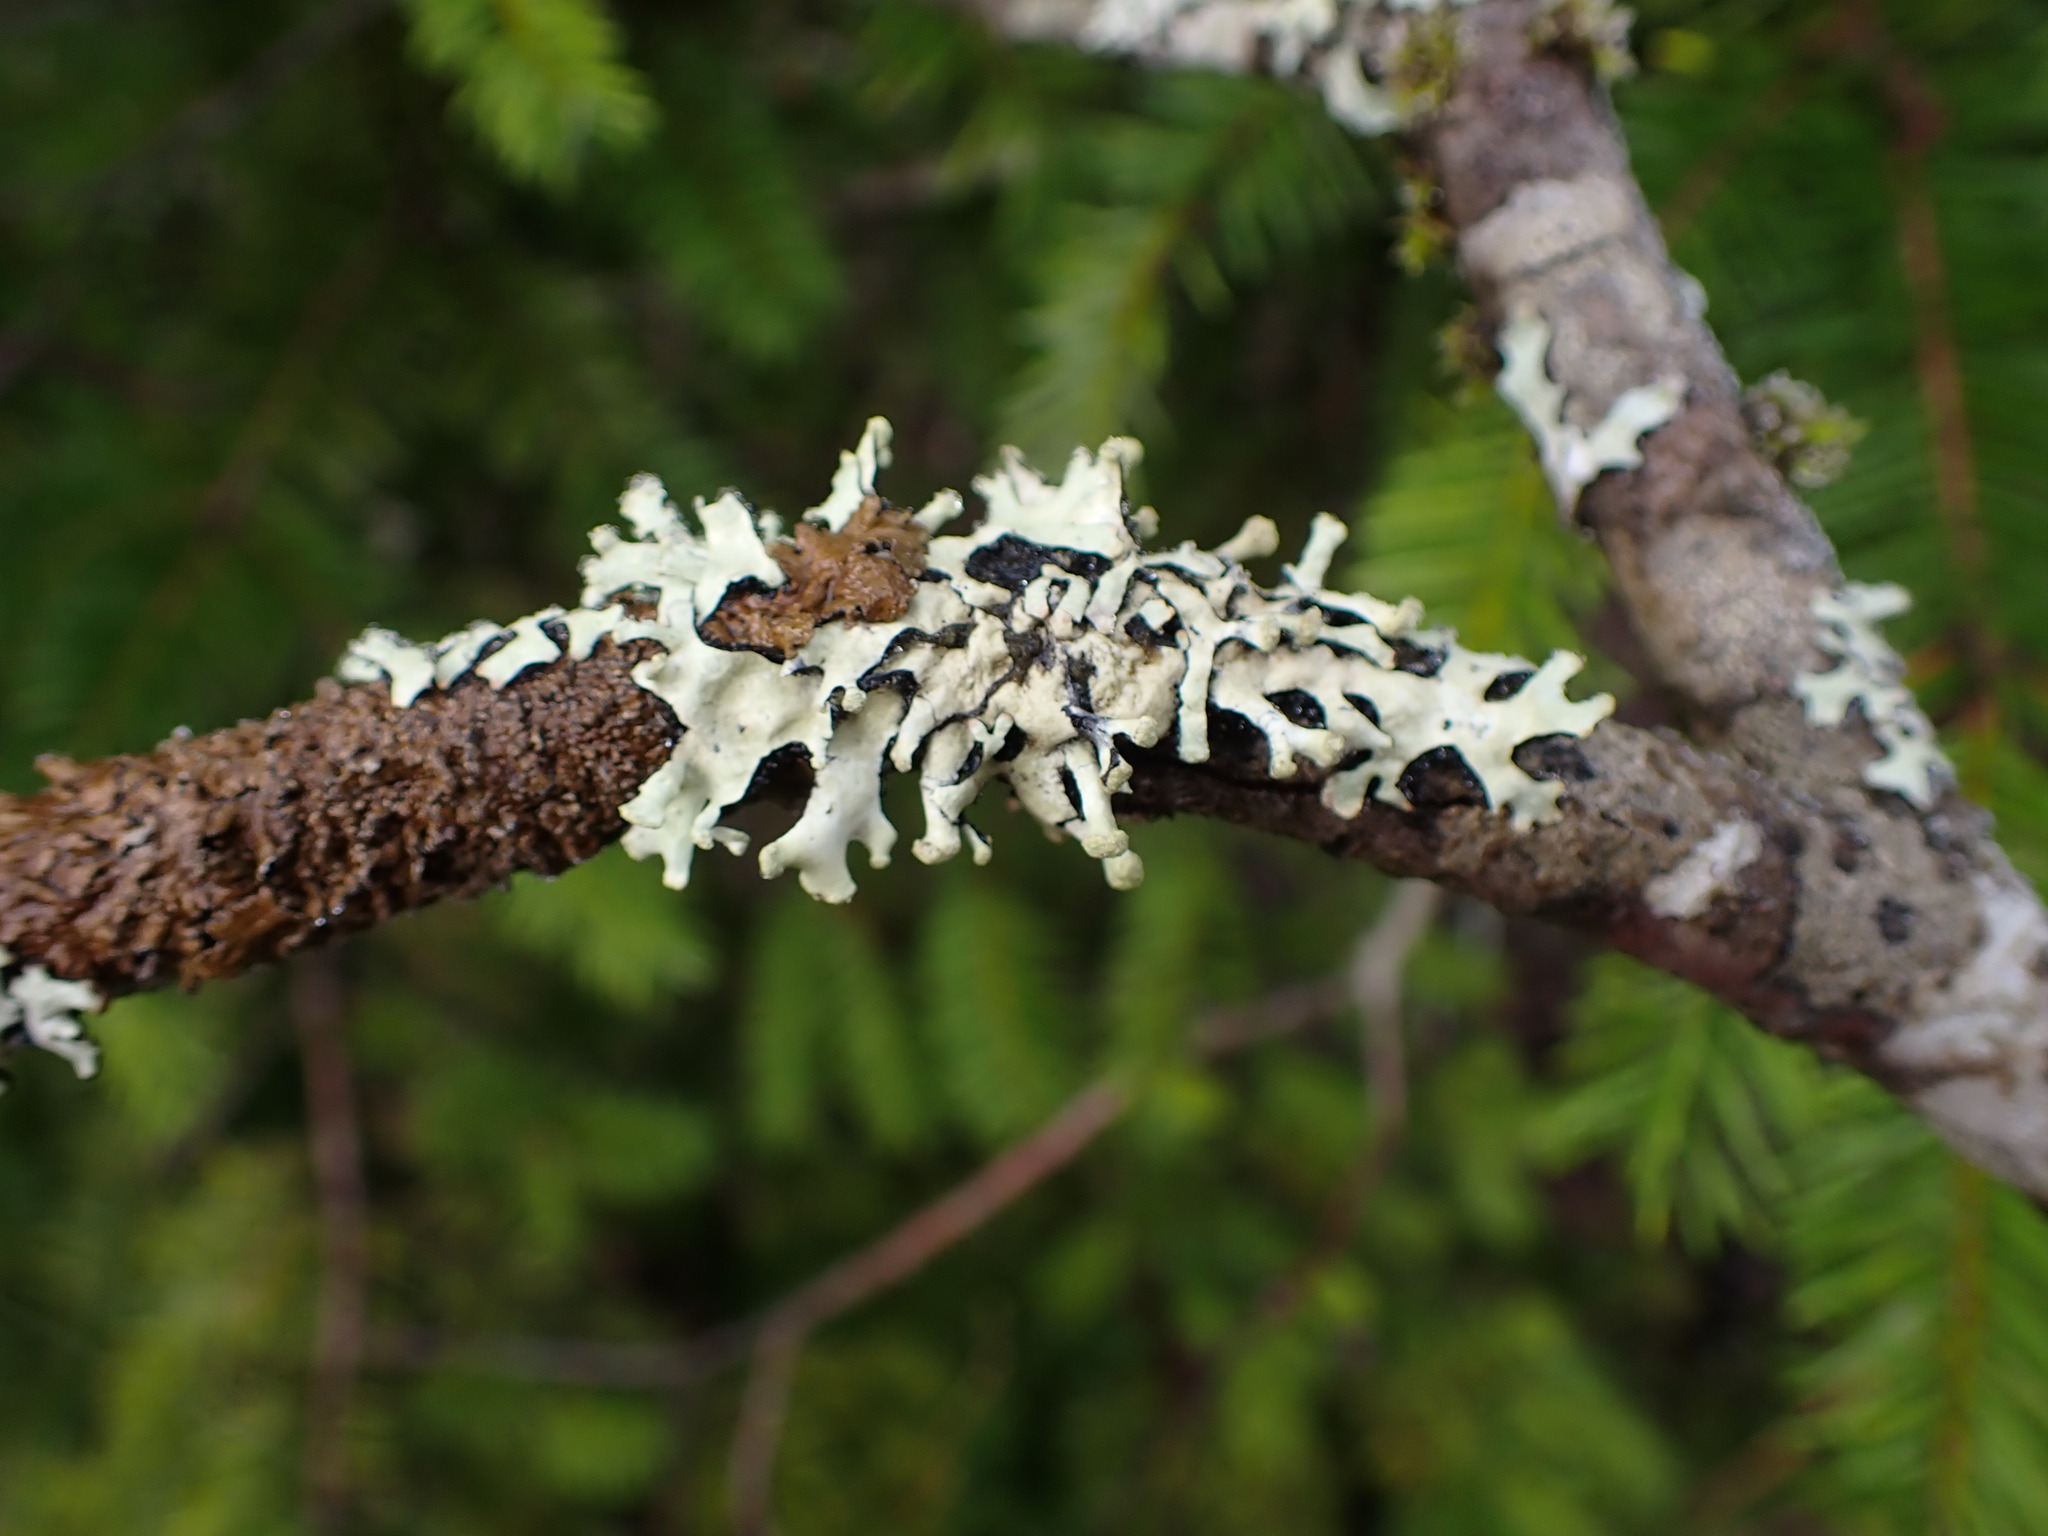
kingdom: Fungi
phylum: Ascomycota
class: Lecanoromycetes
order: Lecanorales
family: Parmeliaceae
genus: Hypotrachyna
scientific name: Hypotrachyna sinuosa
